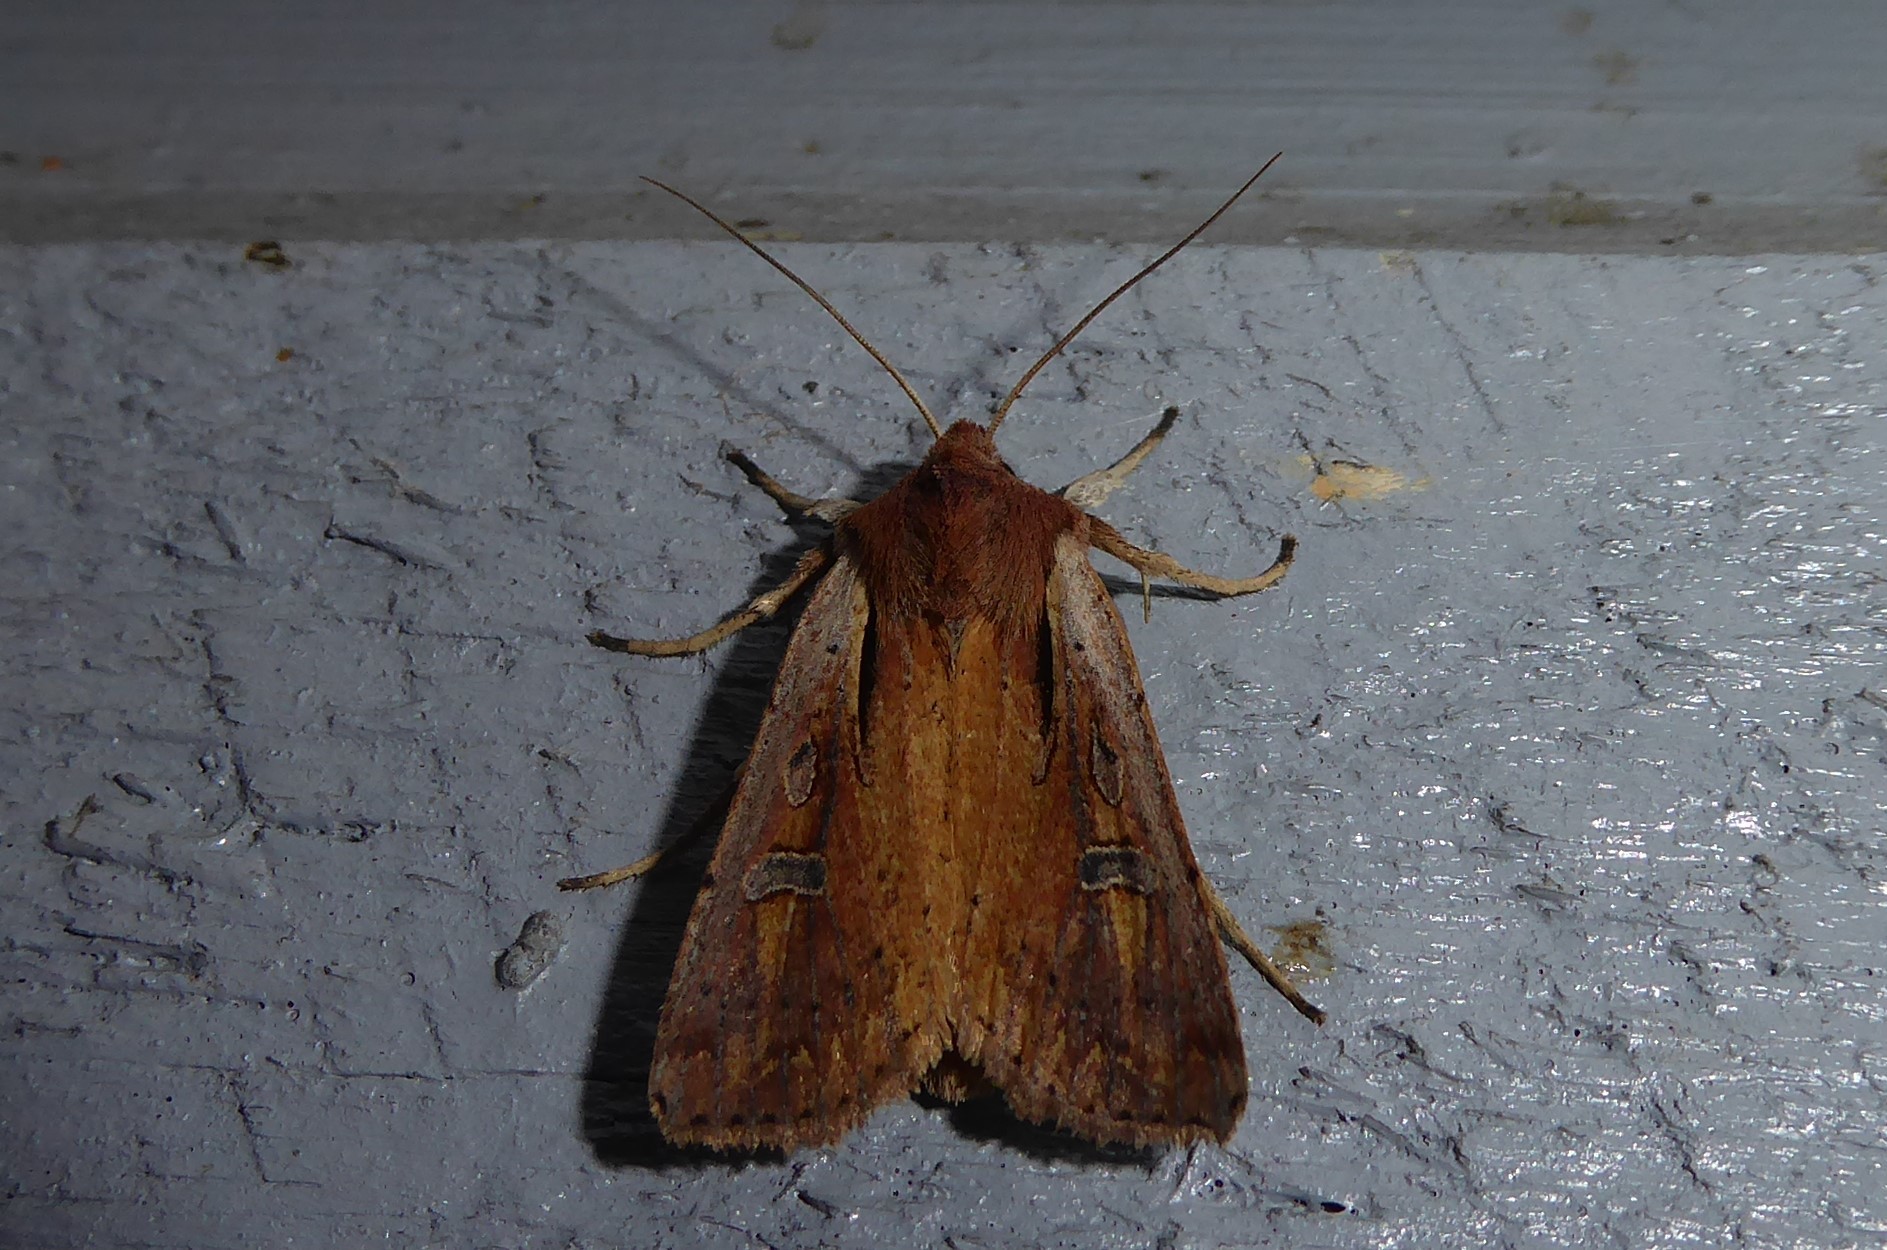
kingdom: Animalia
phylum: Arthropoda
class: Insecta
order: Lepidoptera
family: Noctuidae
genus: Ichneutica
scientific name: Ichneutica atristriga
